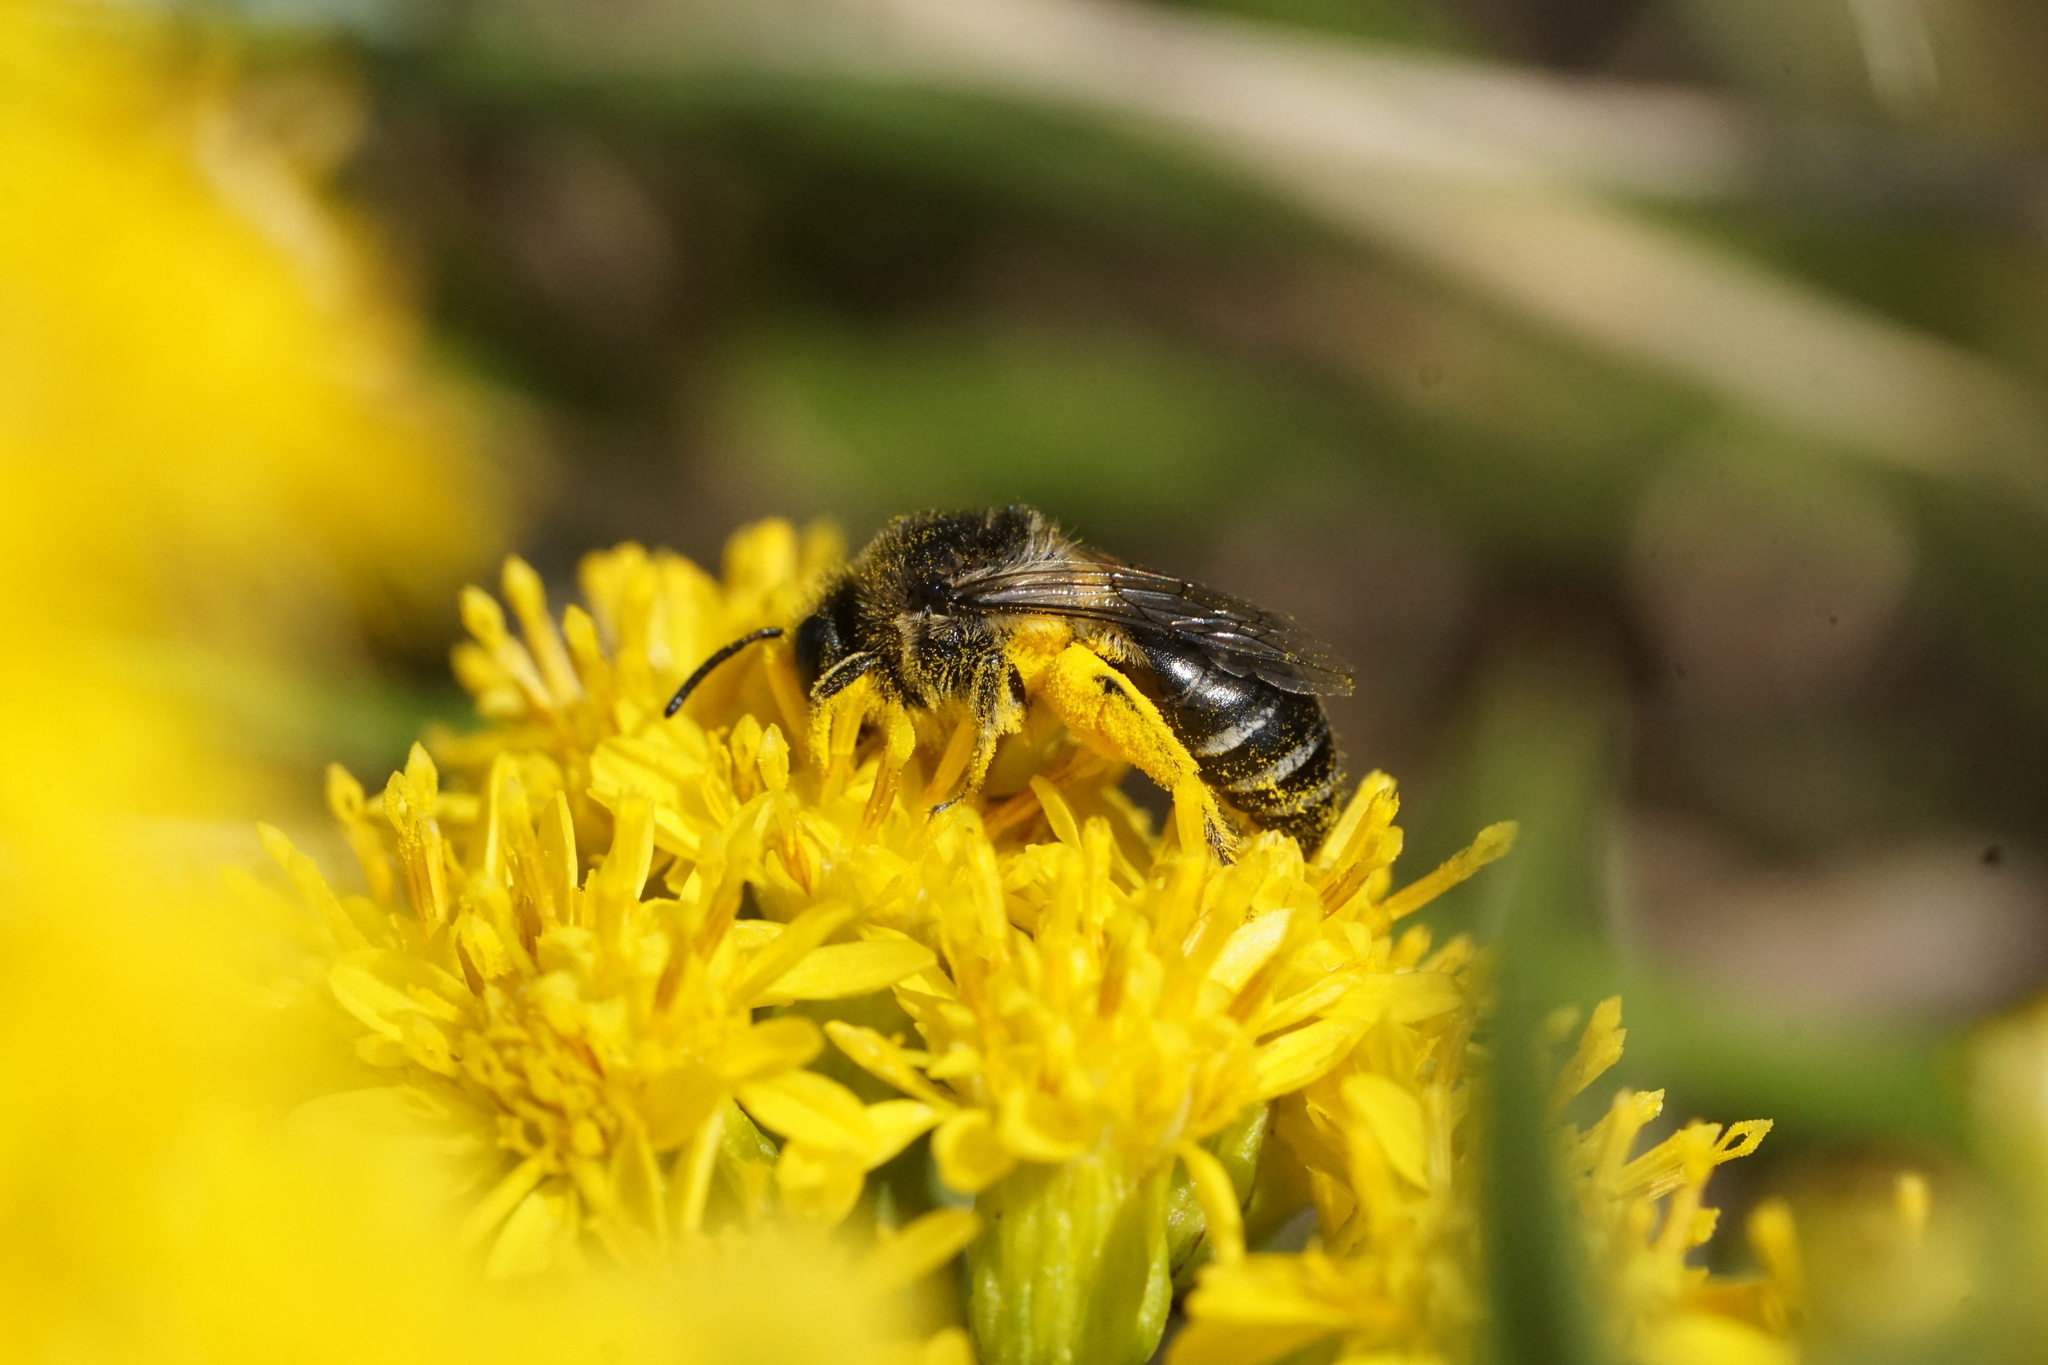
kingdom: Animalia
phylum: Arthropoda
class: Insecta
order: Hymenoptera
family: Colletidae
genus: Colletes
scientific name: Colletes simulans
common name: Spine-shouldered cellophane bee
